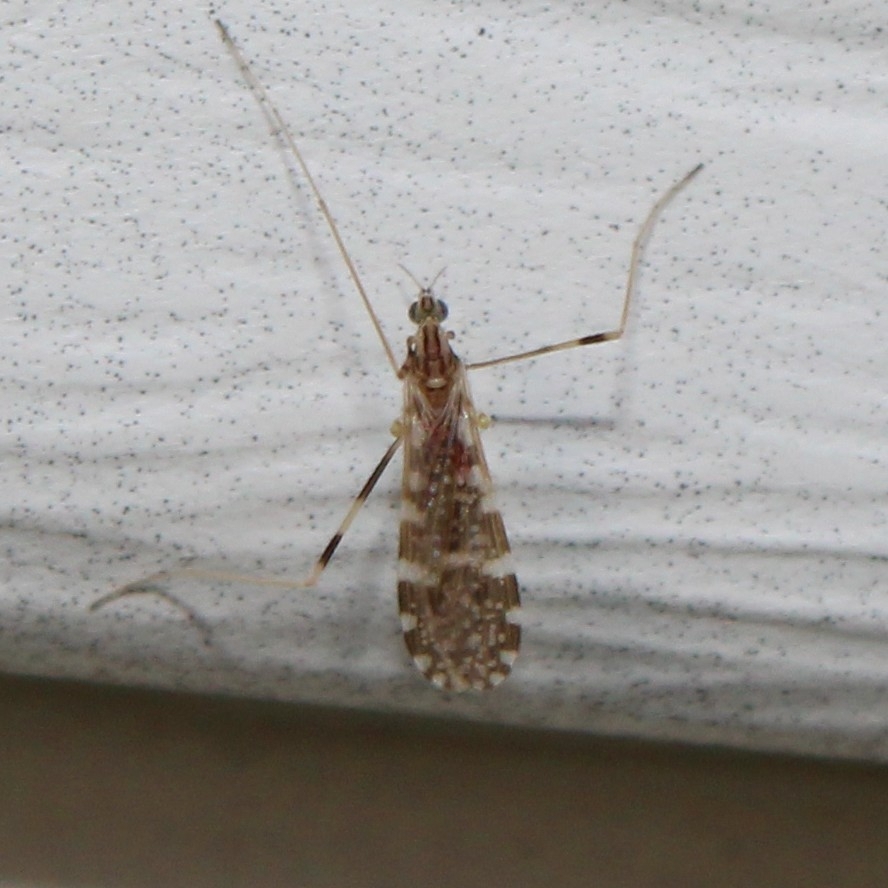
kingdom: Animalia
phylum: Arthropoda
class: Insecta
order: Diptera
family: Limoniidae
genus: Erioptera
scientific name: Erioptera caliptera
